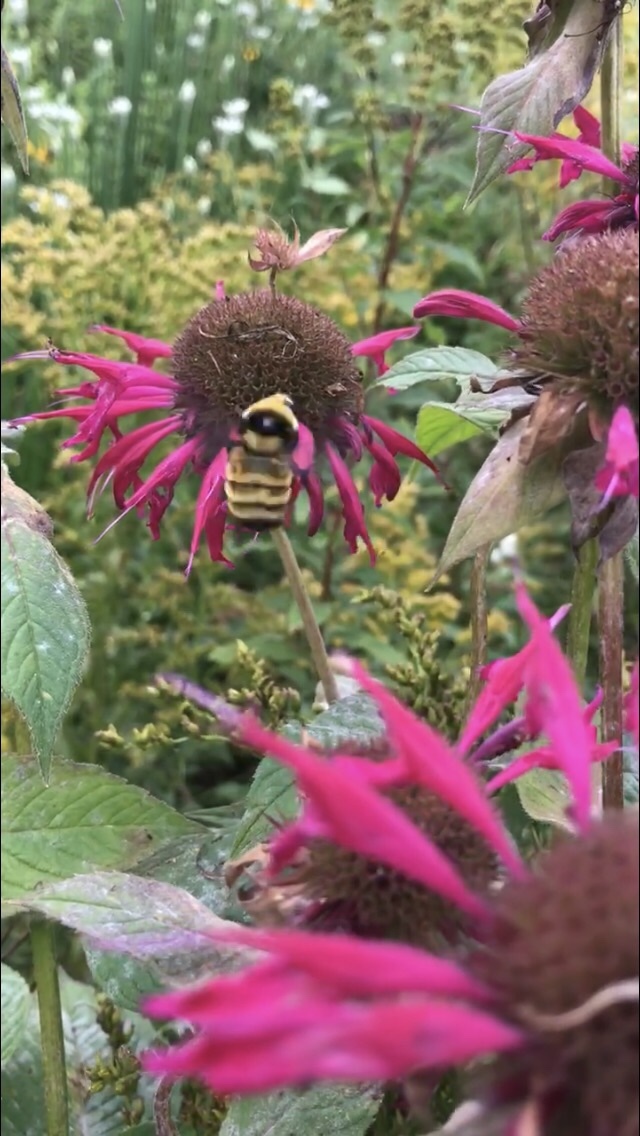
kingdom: Animalia
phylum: Arthropoda
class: Insecta
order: Hymenoptera
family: Apidae
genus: Bombus
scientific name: Bombus borealis
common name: Northern amber bumble bee
